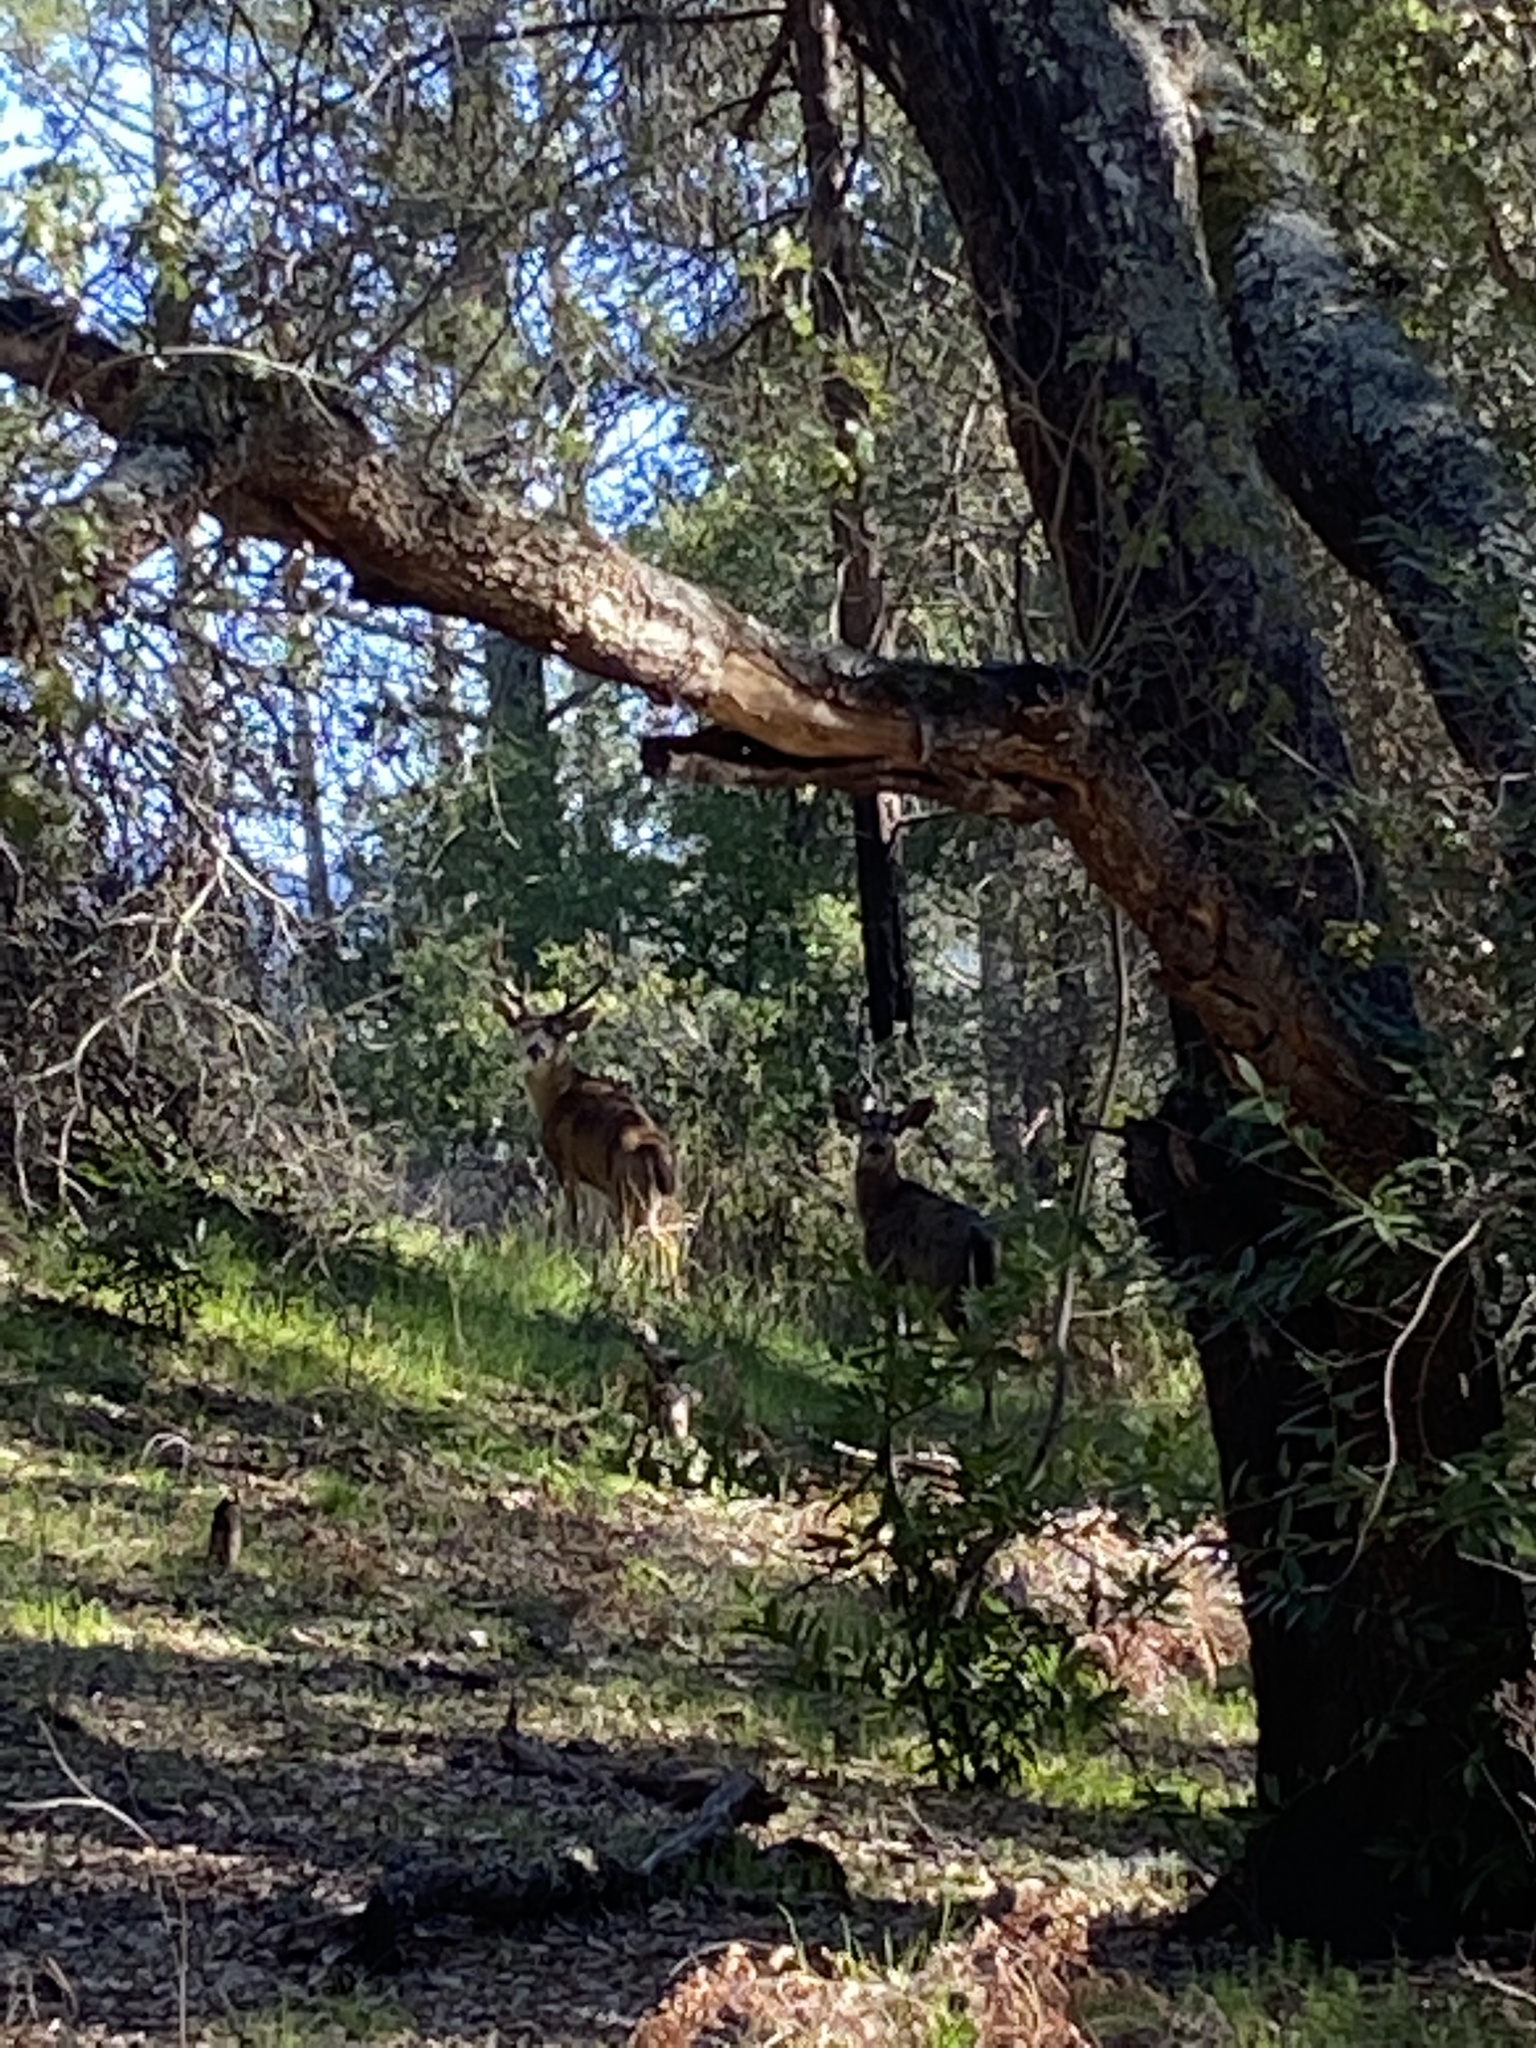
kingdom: Animalia
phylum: Chordata
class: Mammalia
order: Artiodactyla
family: Cervidae
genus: Odocoileus
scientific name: Odocoileus hemionus
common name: Mule deer
